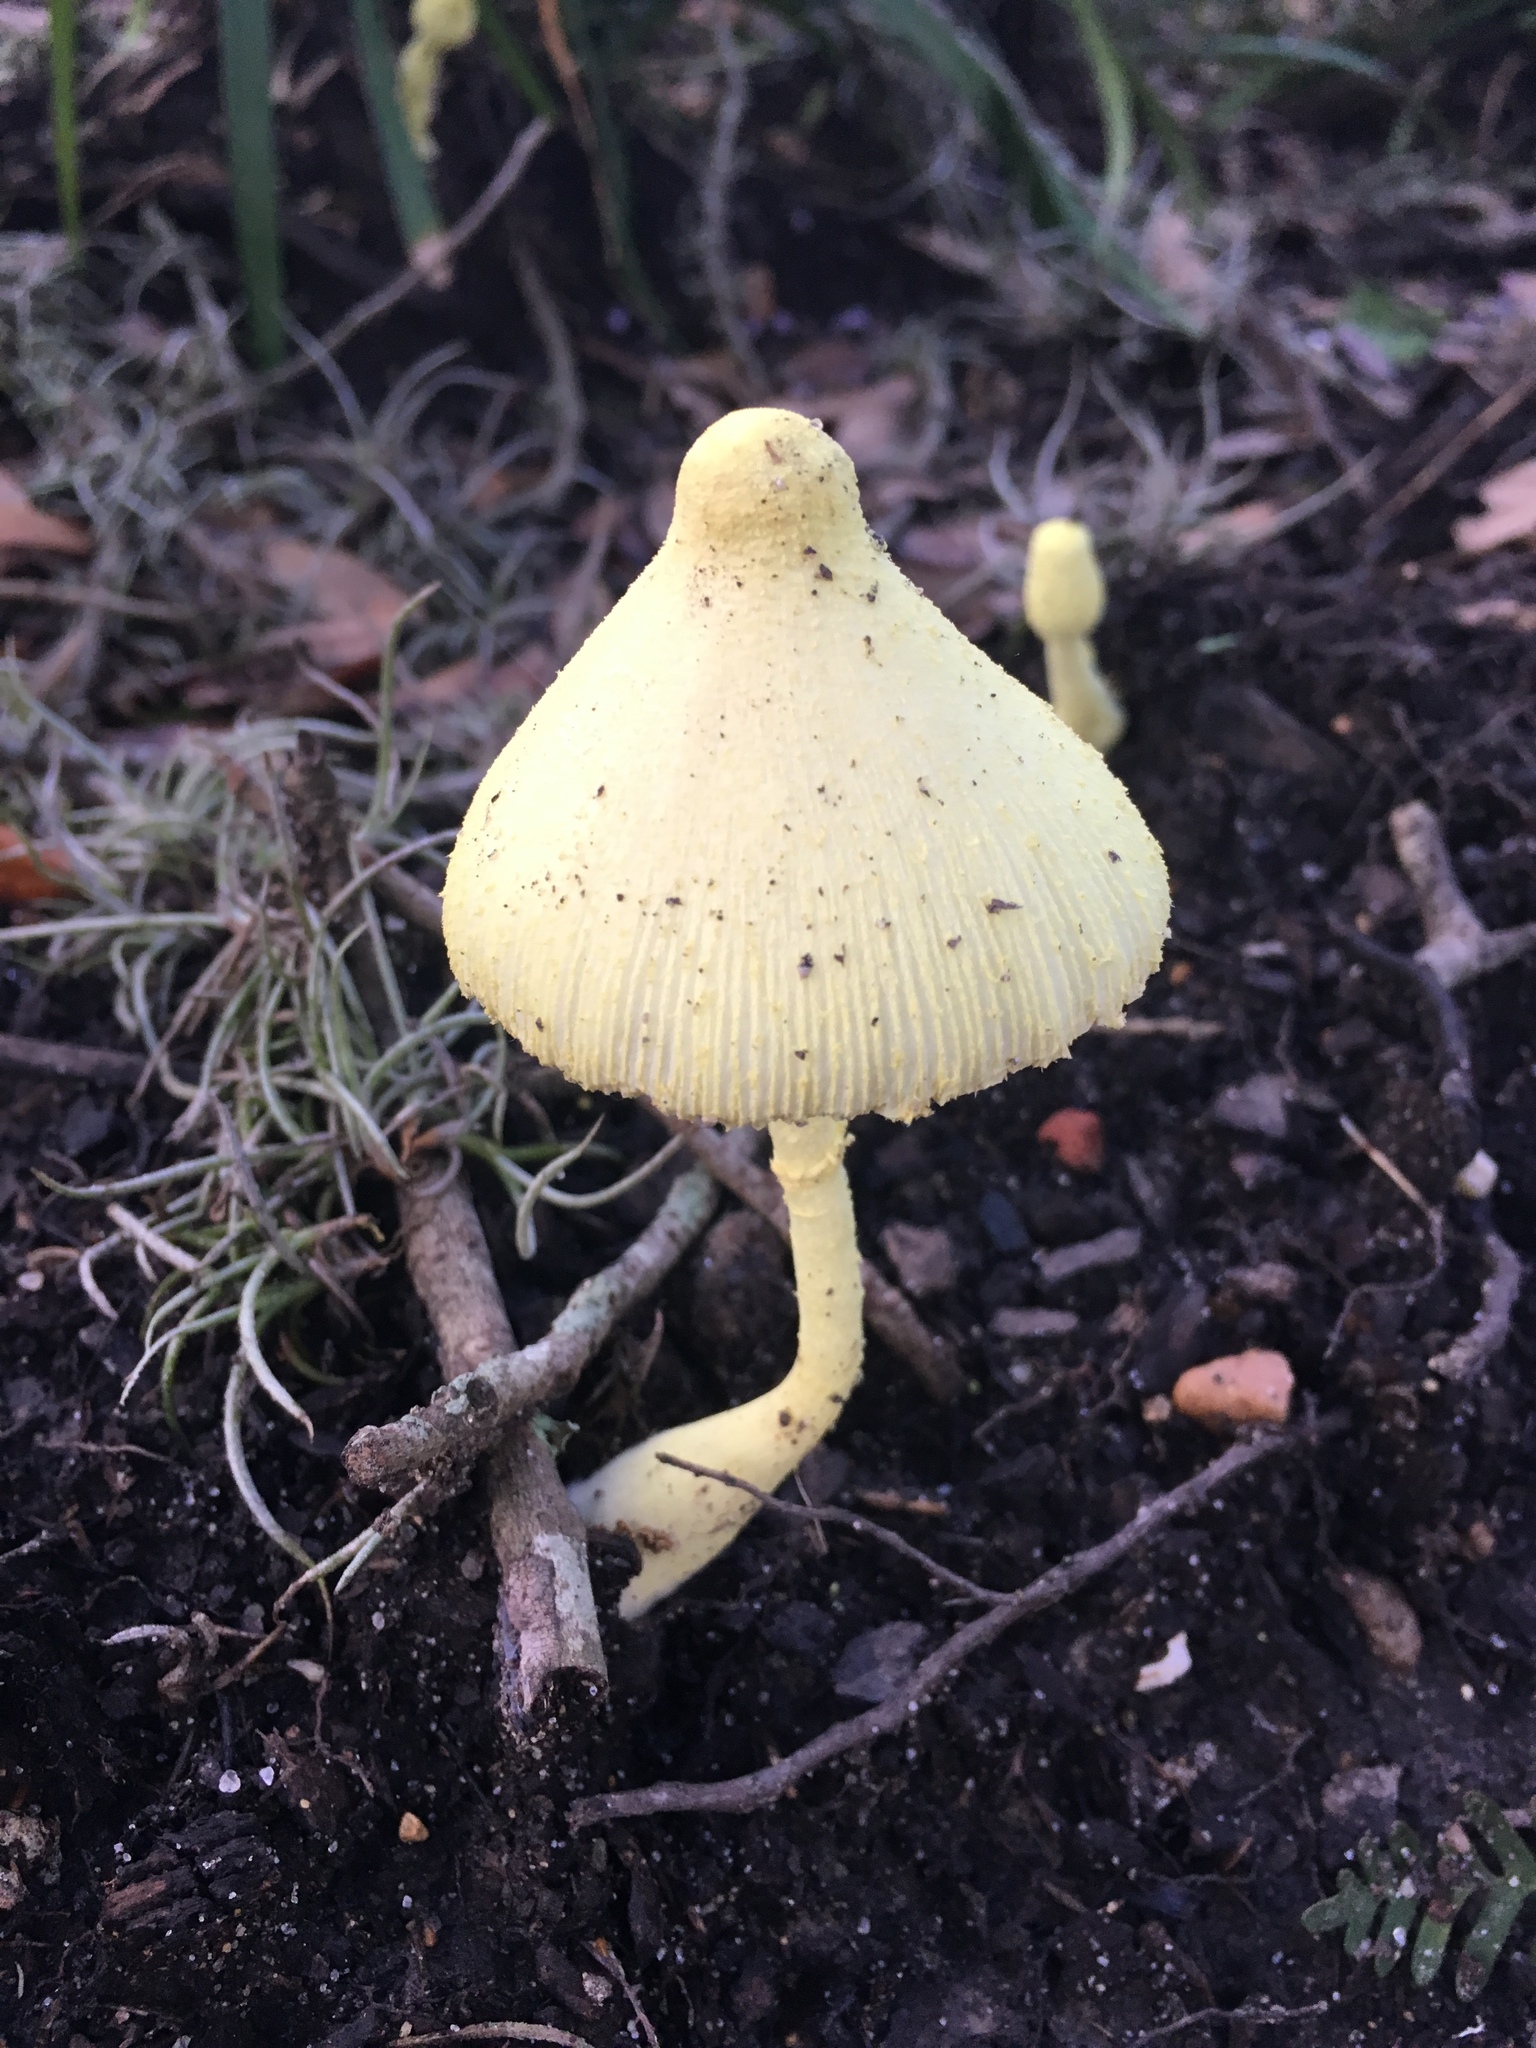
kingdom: Fungi
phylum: Basidiomycota
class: Agaricomycetes
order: Agaricales
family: Agaricaceae
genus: Leucocoprinus
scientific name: Leucocoprinus birnbaumii
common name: Plantpot dapperling
